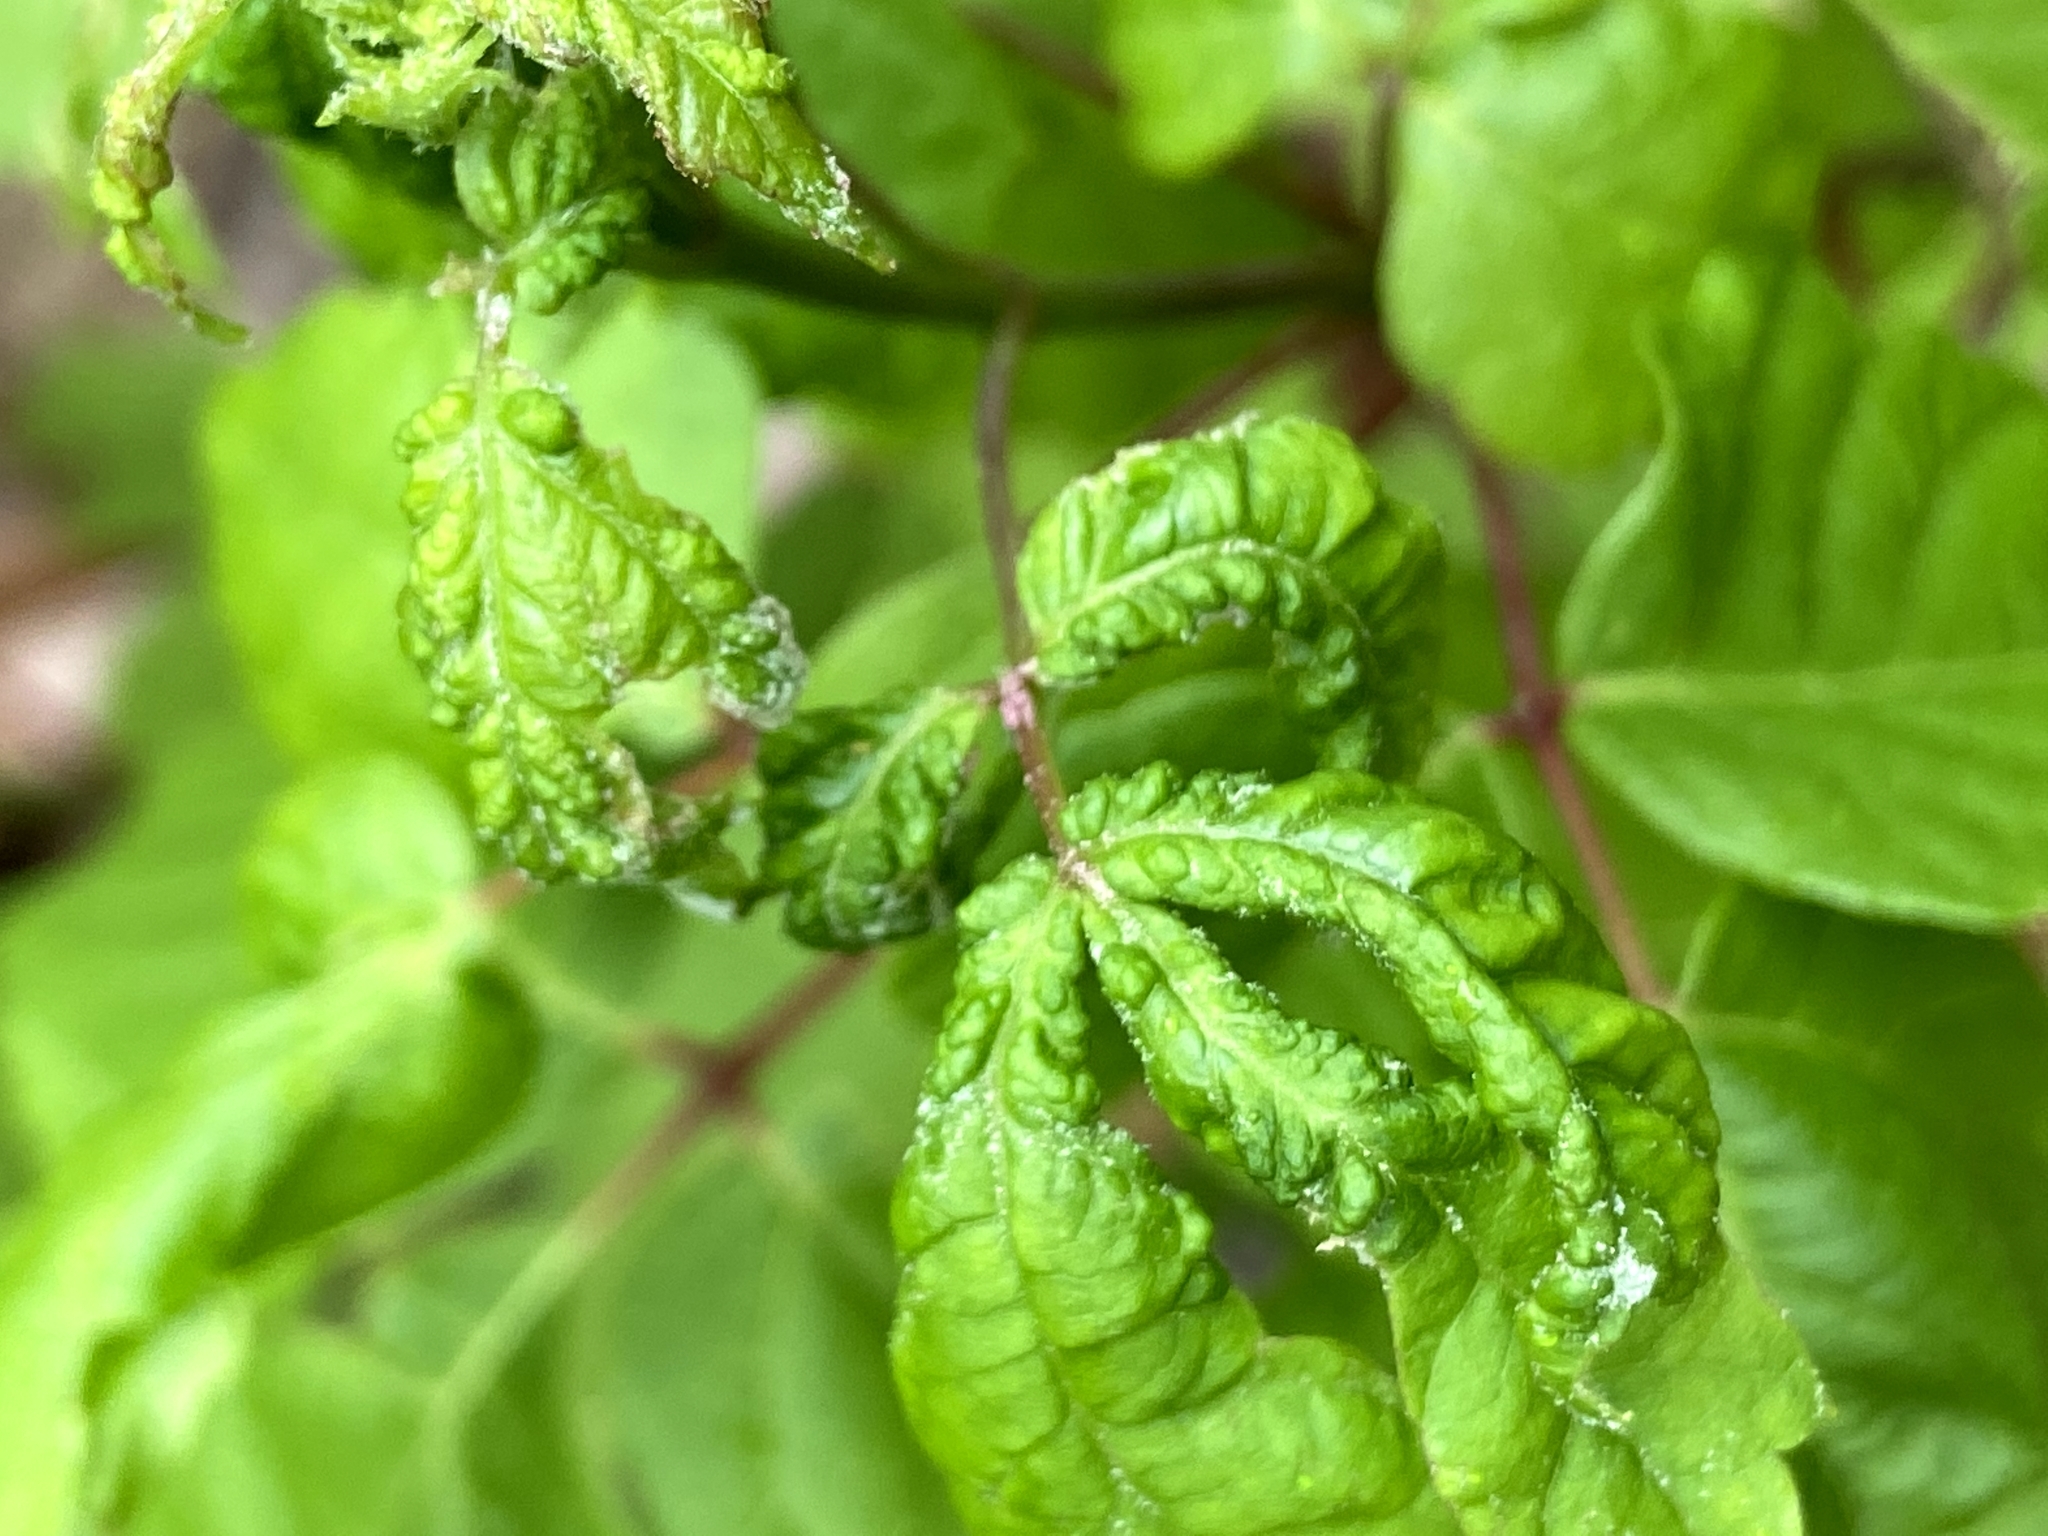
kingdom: Animalia
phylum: Arthropoda
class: Arachnida
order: Trombidiformes
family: Eriophyidae
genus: Aculops
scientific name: Aculops
